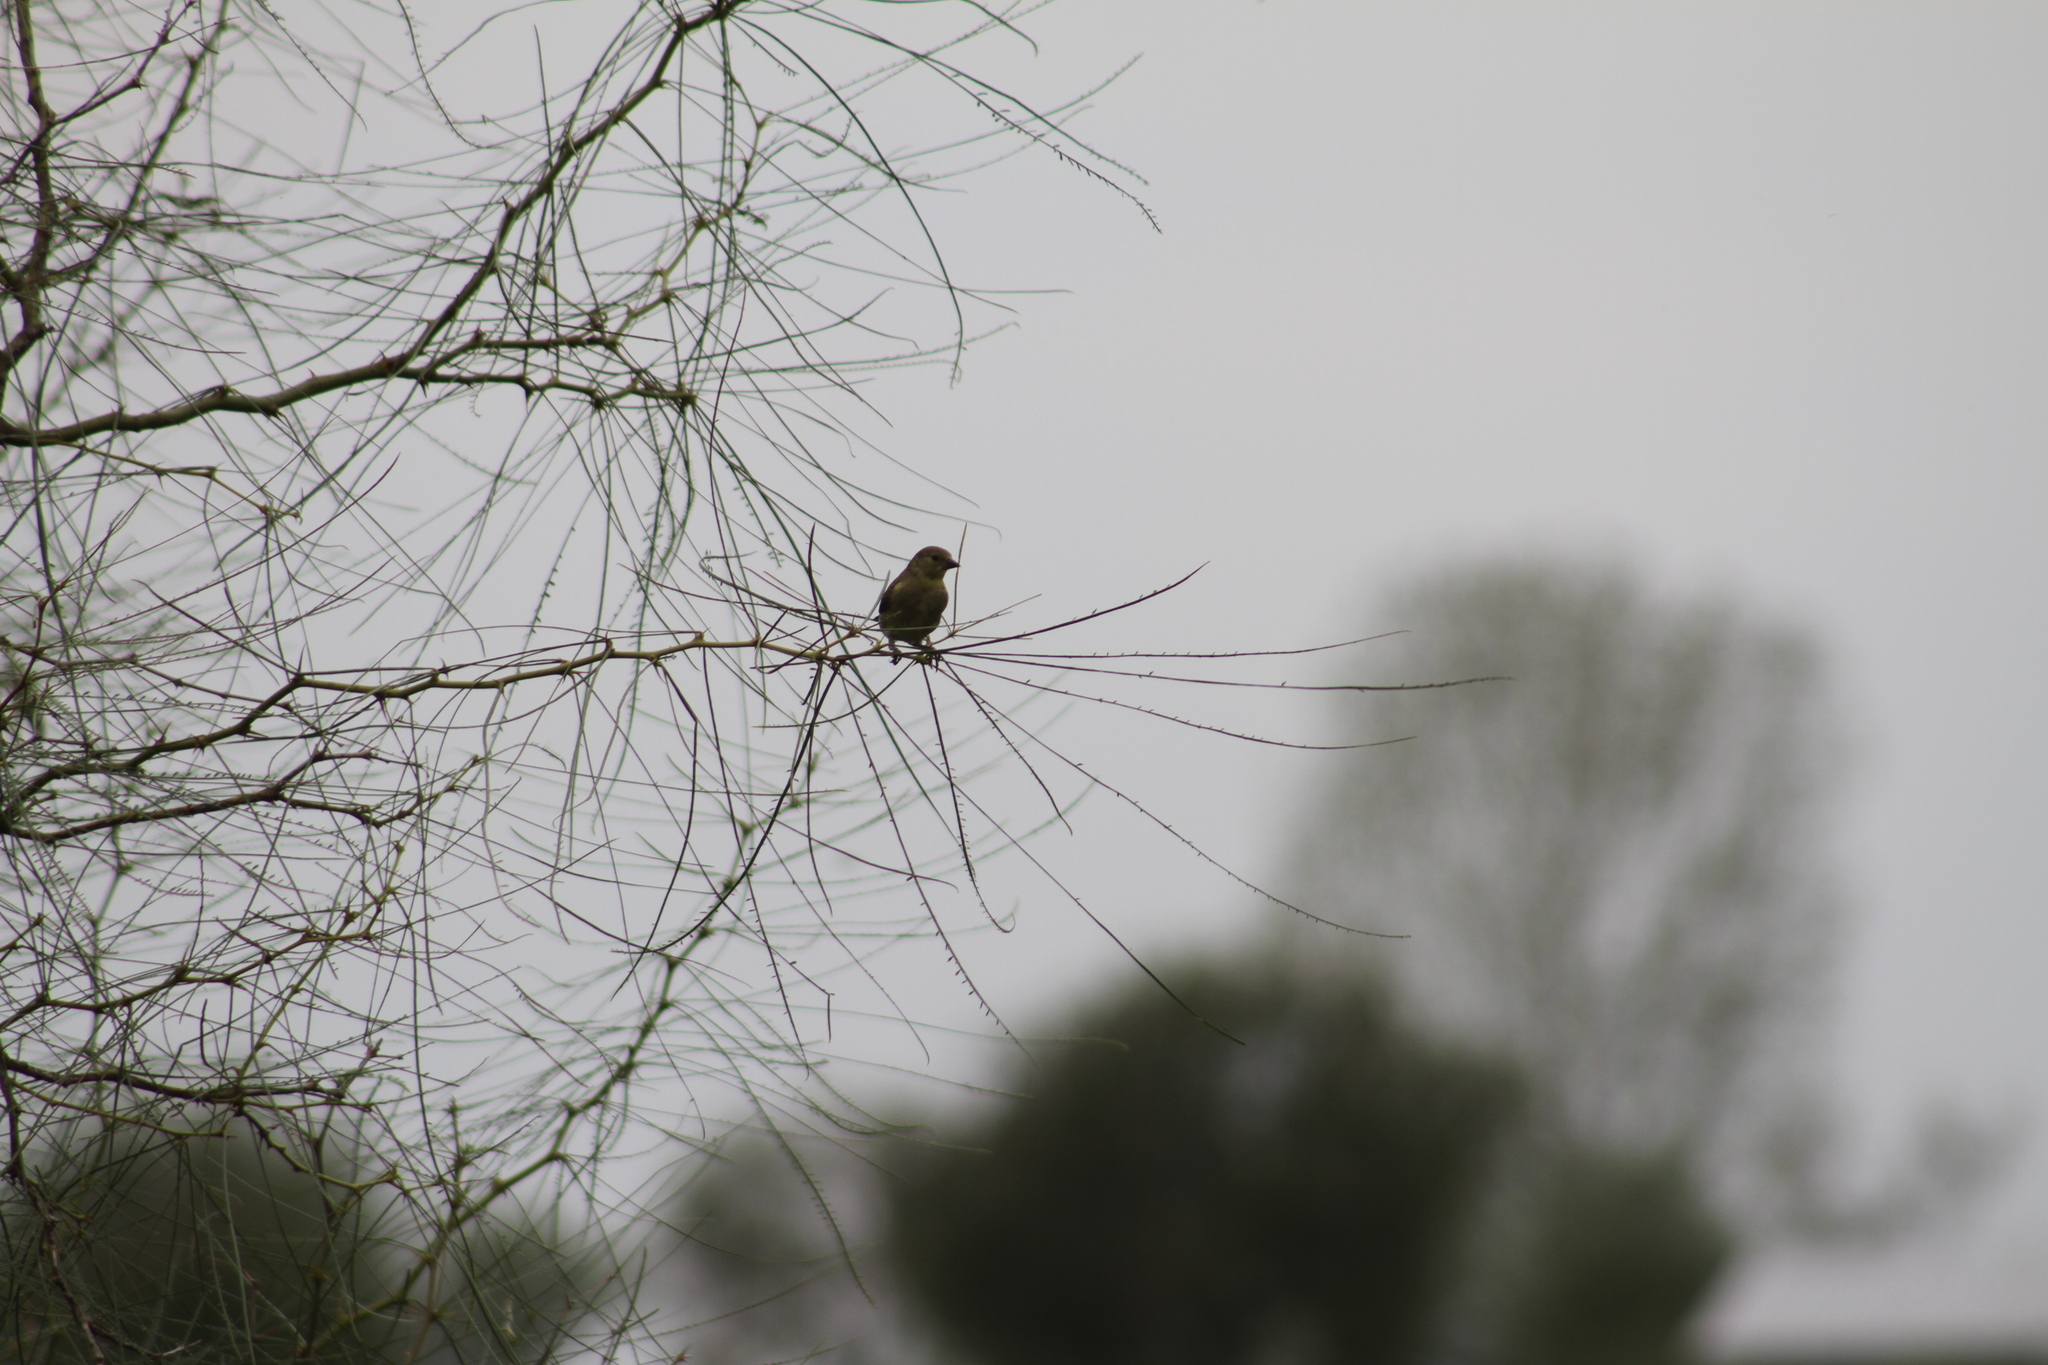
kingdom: Animalia
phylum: Chordata
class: Aves
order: Passeriformes
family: Fringillidae
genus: Spinus
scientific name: Spinus magellanicus
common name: Hooded siskin
